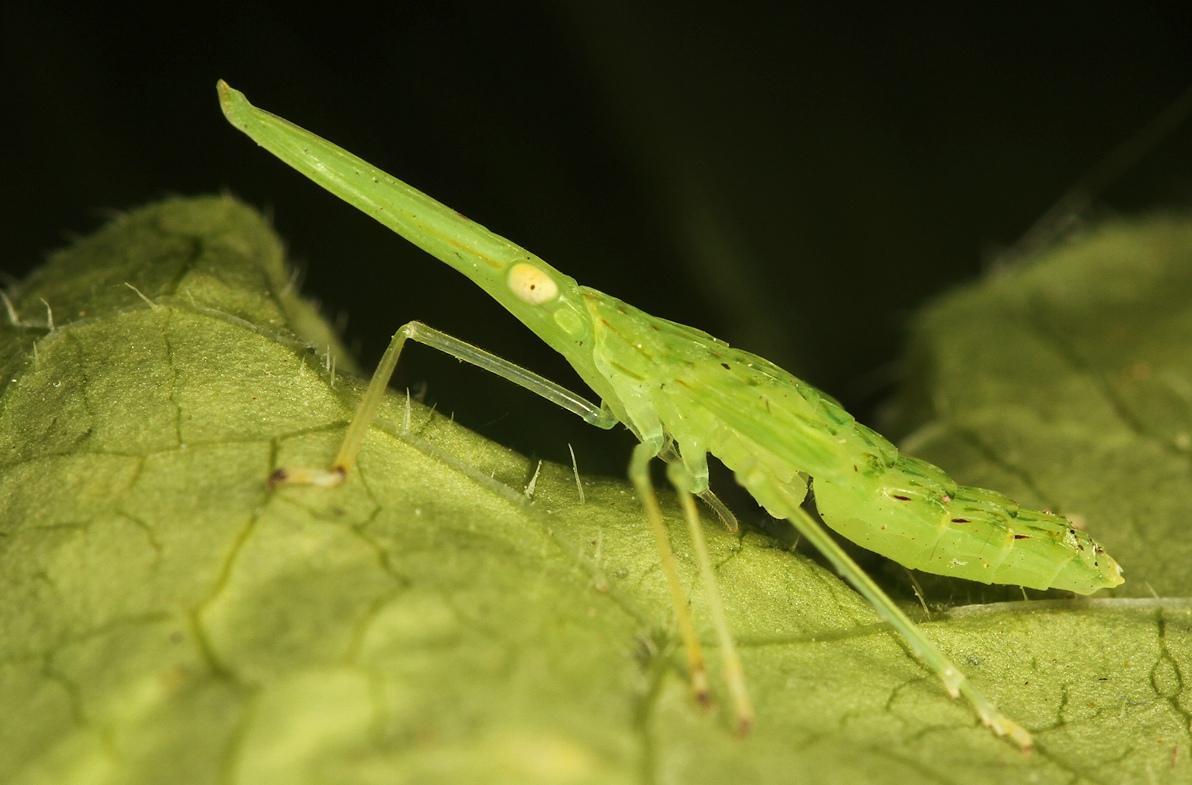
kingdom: Animalia
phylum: Arthropoda
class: Insecta
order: Hemiptera
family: Dictyopharidae
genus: Aluntia
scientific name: Aluntia schimperii
